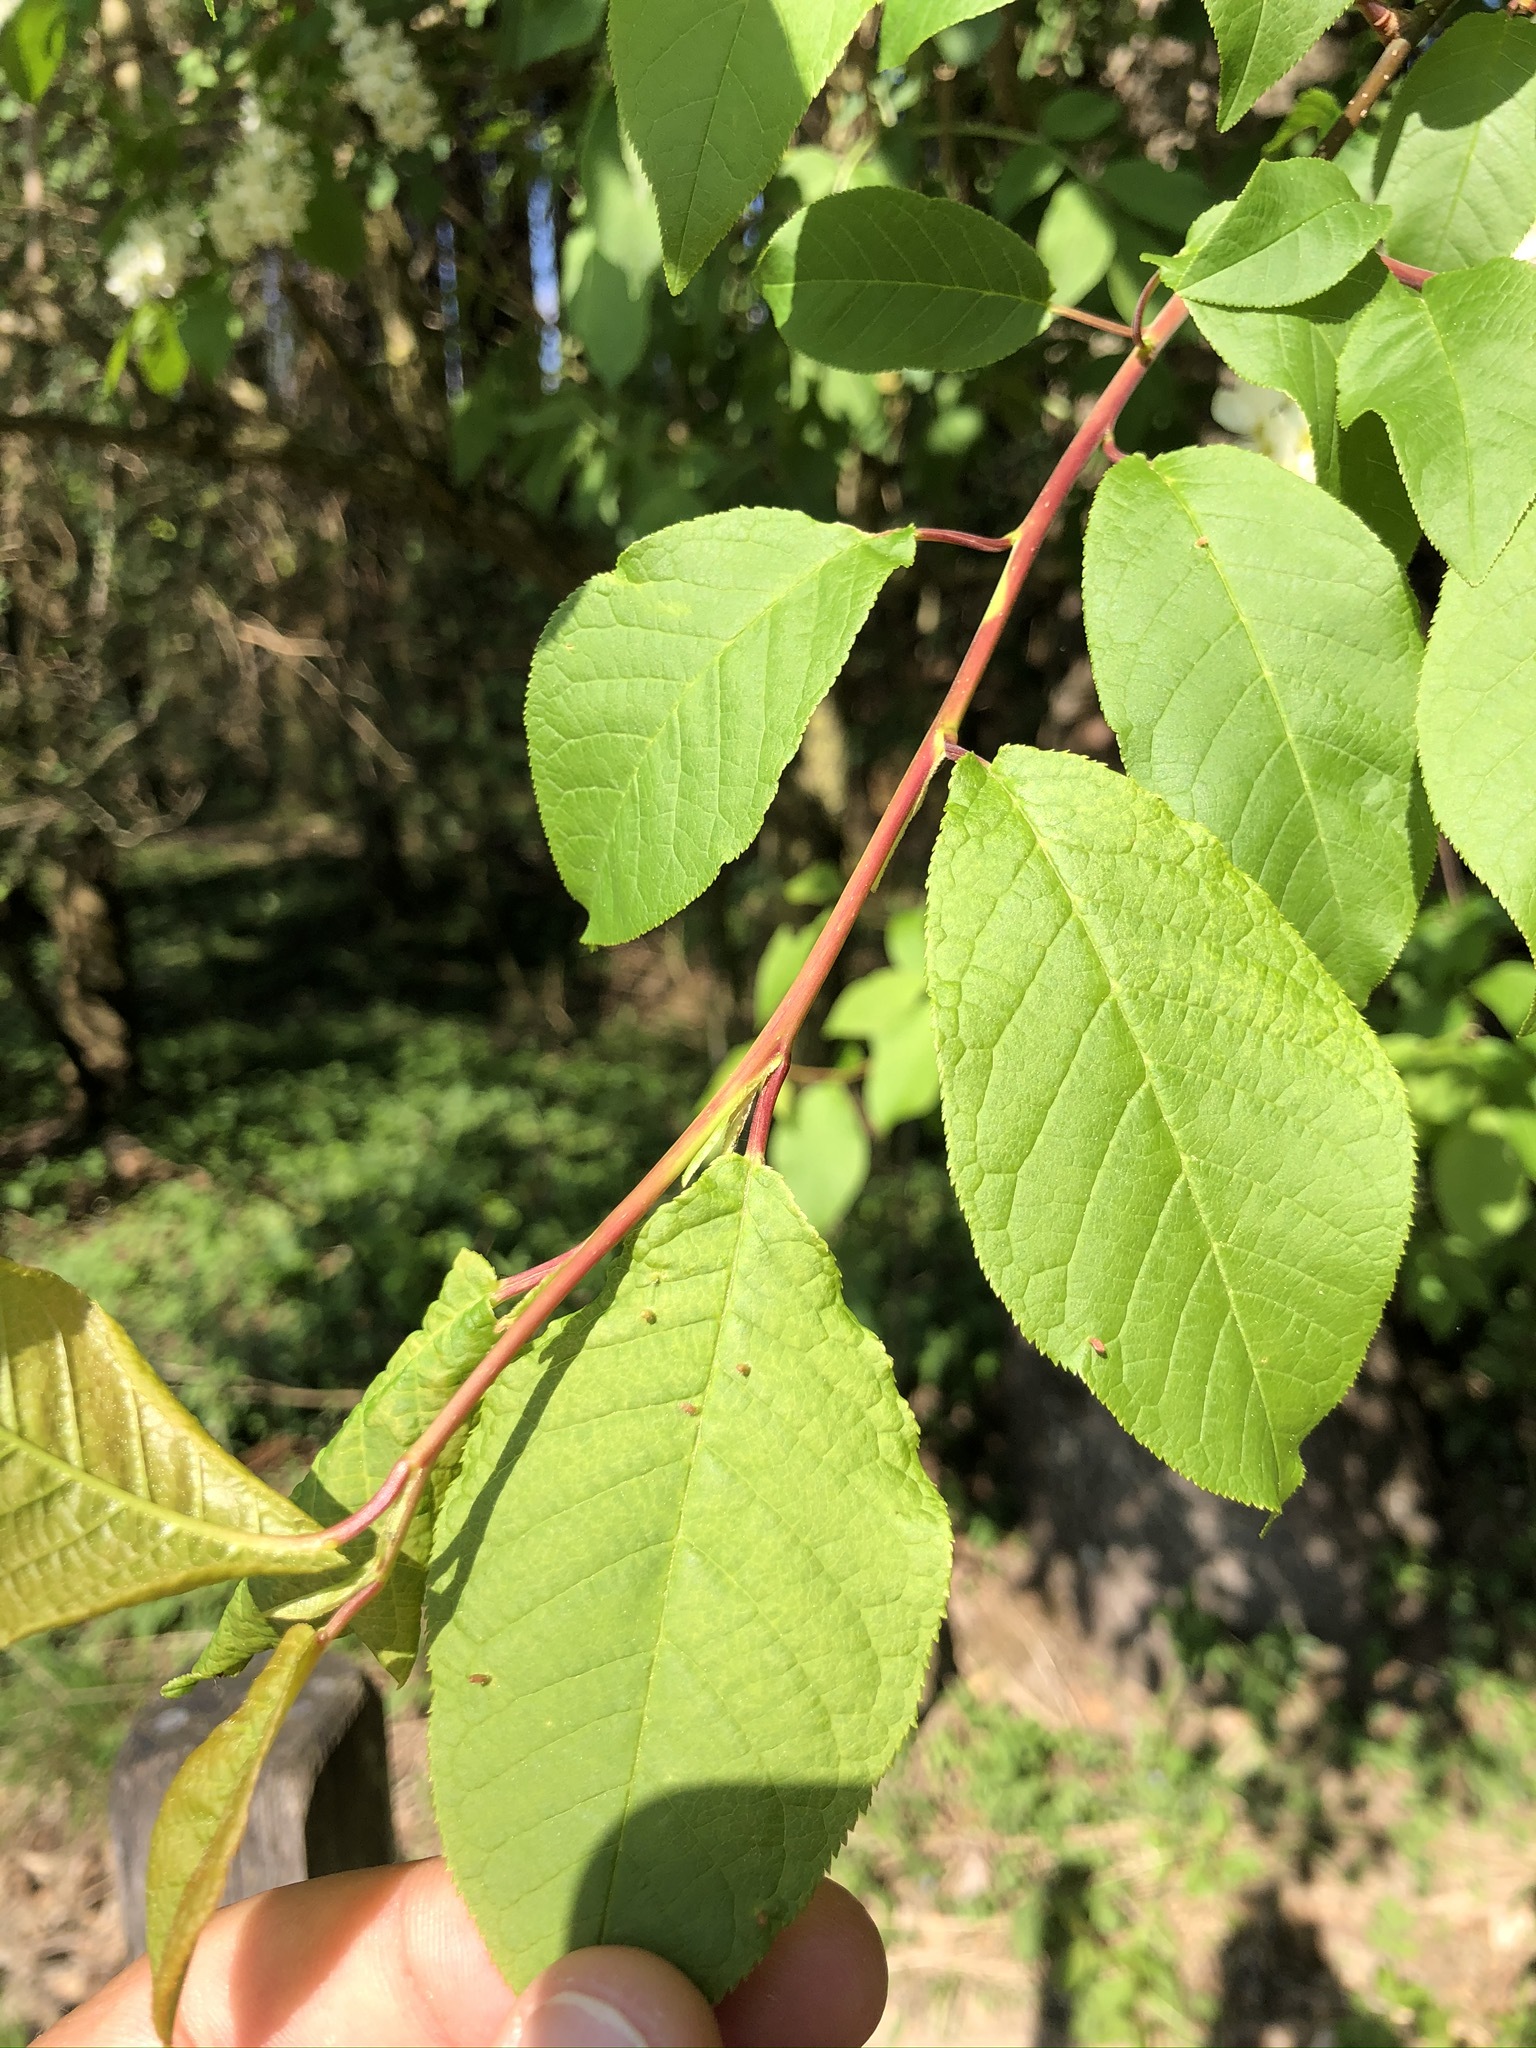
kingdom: Plantae
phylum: Tracheophyta
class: Magnoliopsida
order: Rosales
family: Rosaceae
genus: Prunus
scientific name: Prunus padus
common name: Bird cherry
